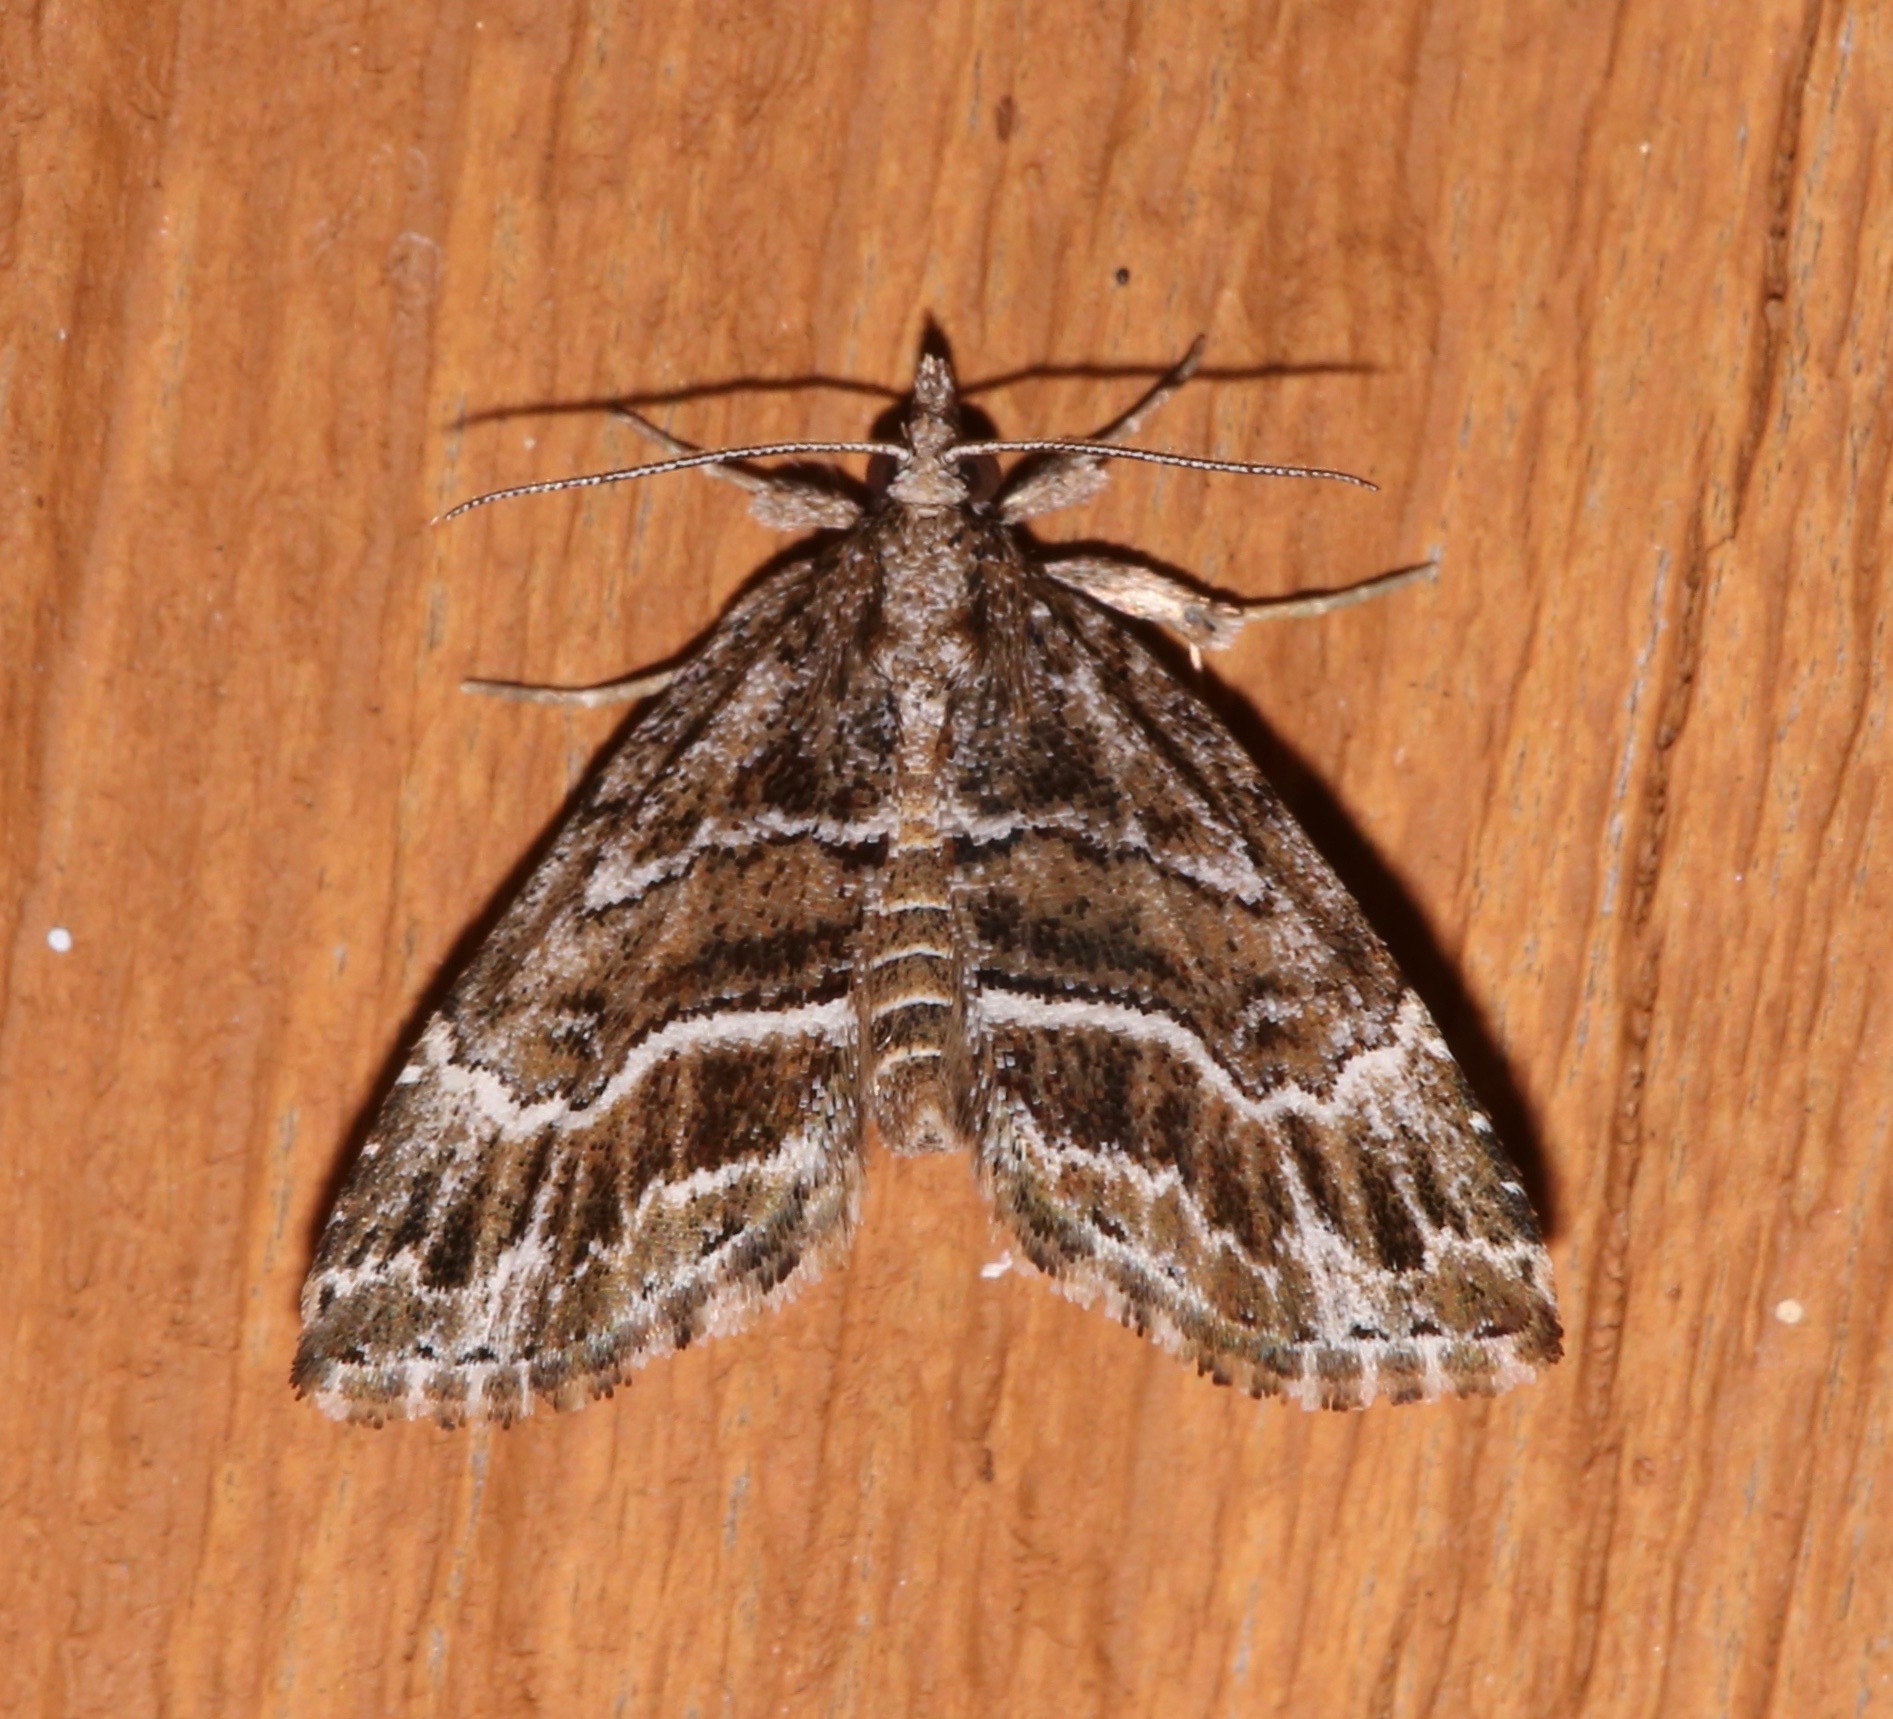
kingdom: Animalia
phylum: Arthropoda
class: Insecta
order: Lepidoptera
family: Erebidae
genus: Cutina
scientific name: Cutina arcuata
